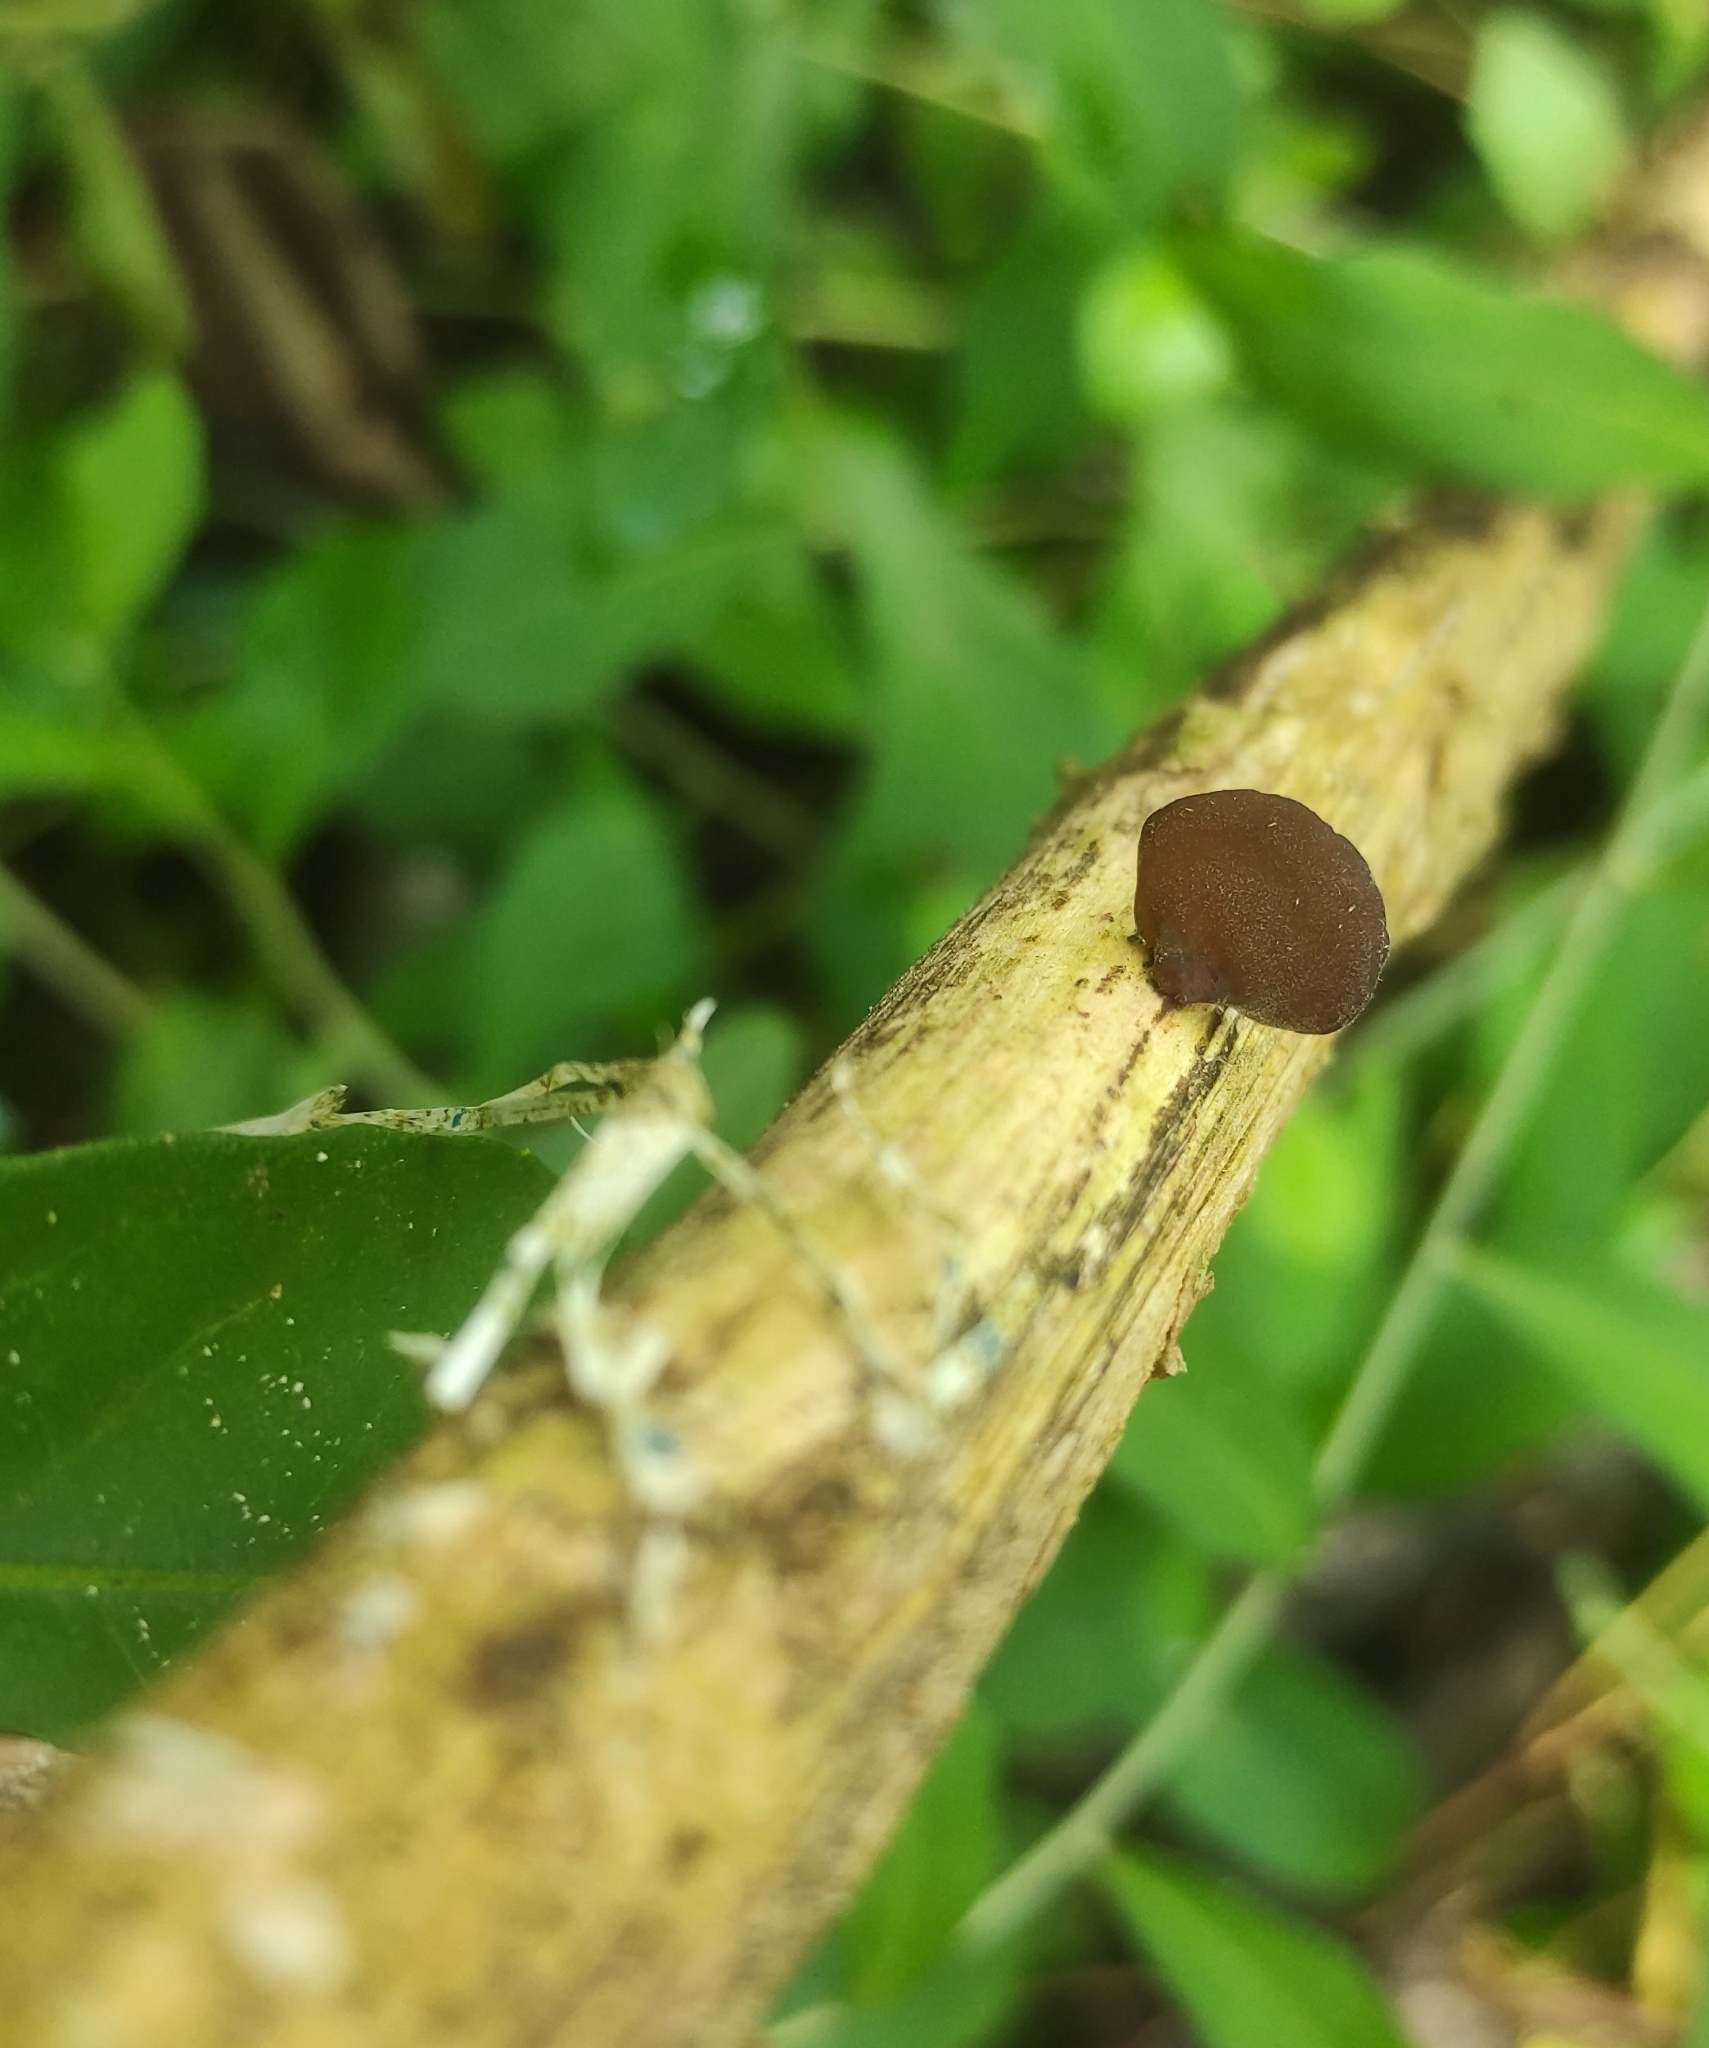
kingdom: Fungi
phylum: Basidiomycota
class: Agaricomycetes
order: Auriculariales
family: Auriculariaceae
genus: Auricularia
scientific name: Auricularia nigricans
